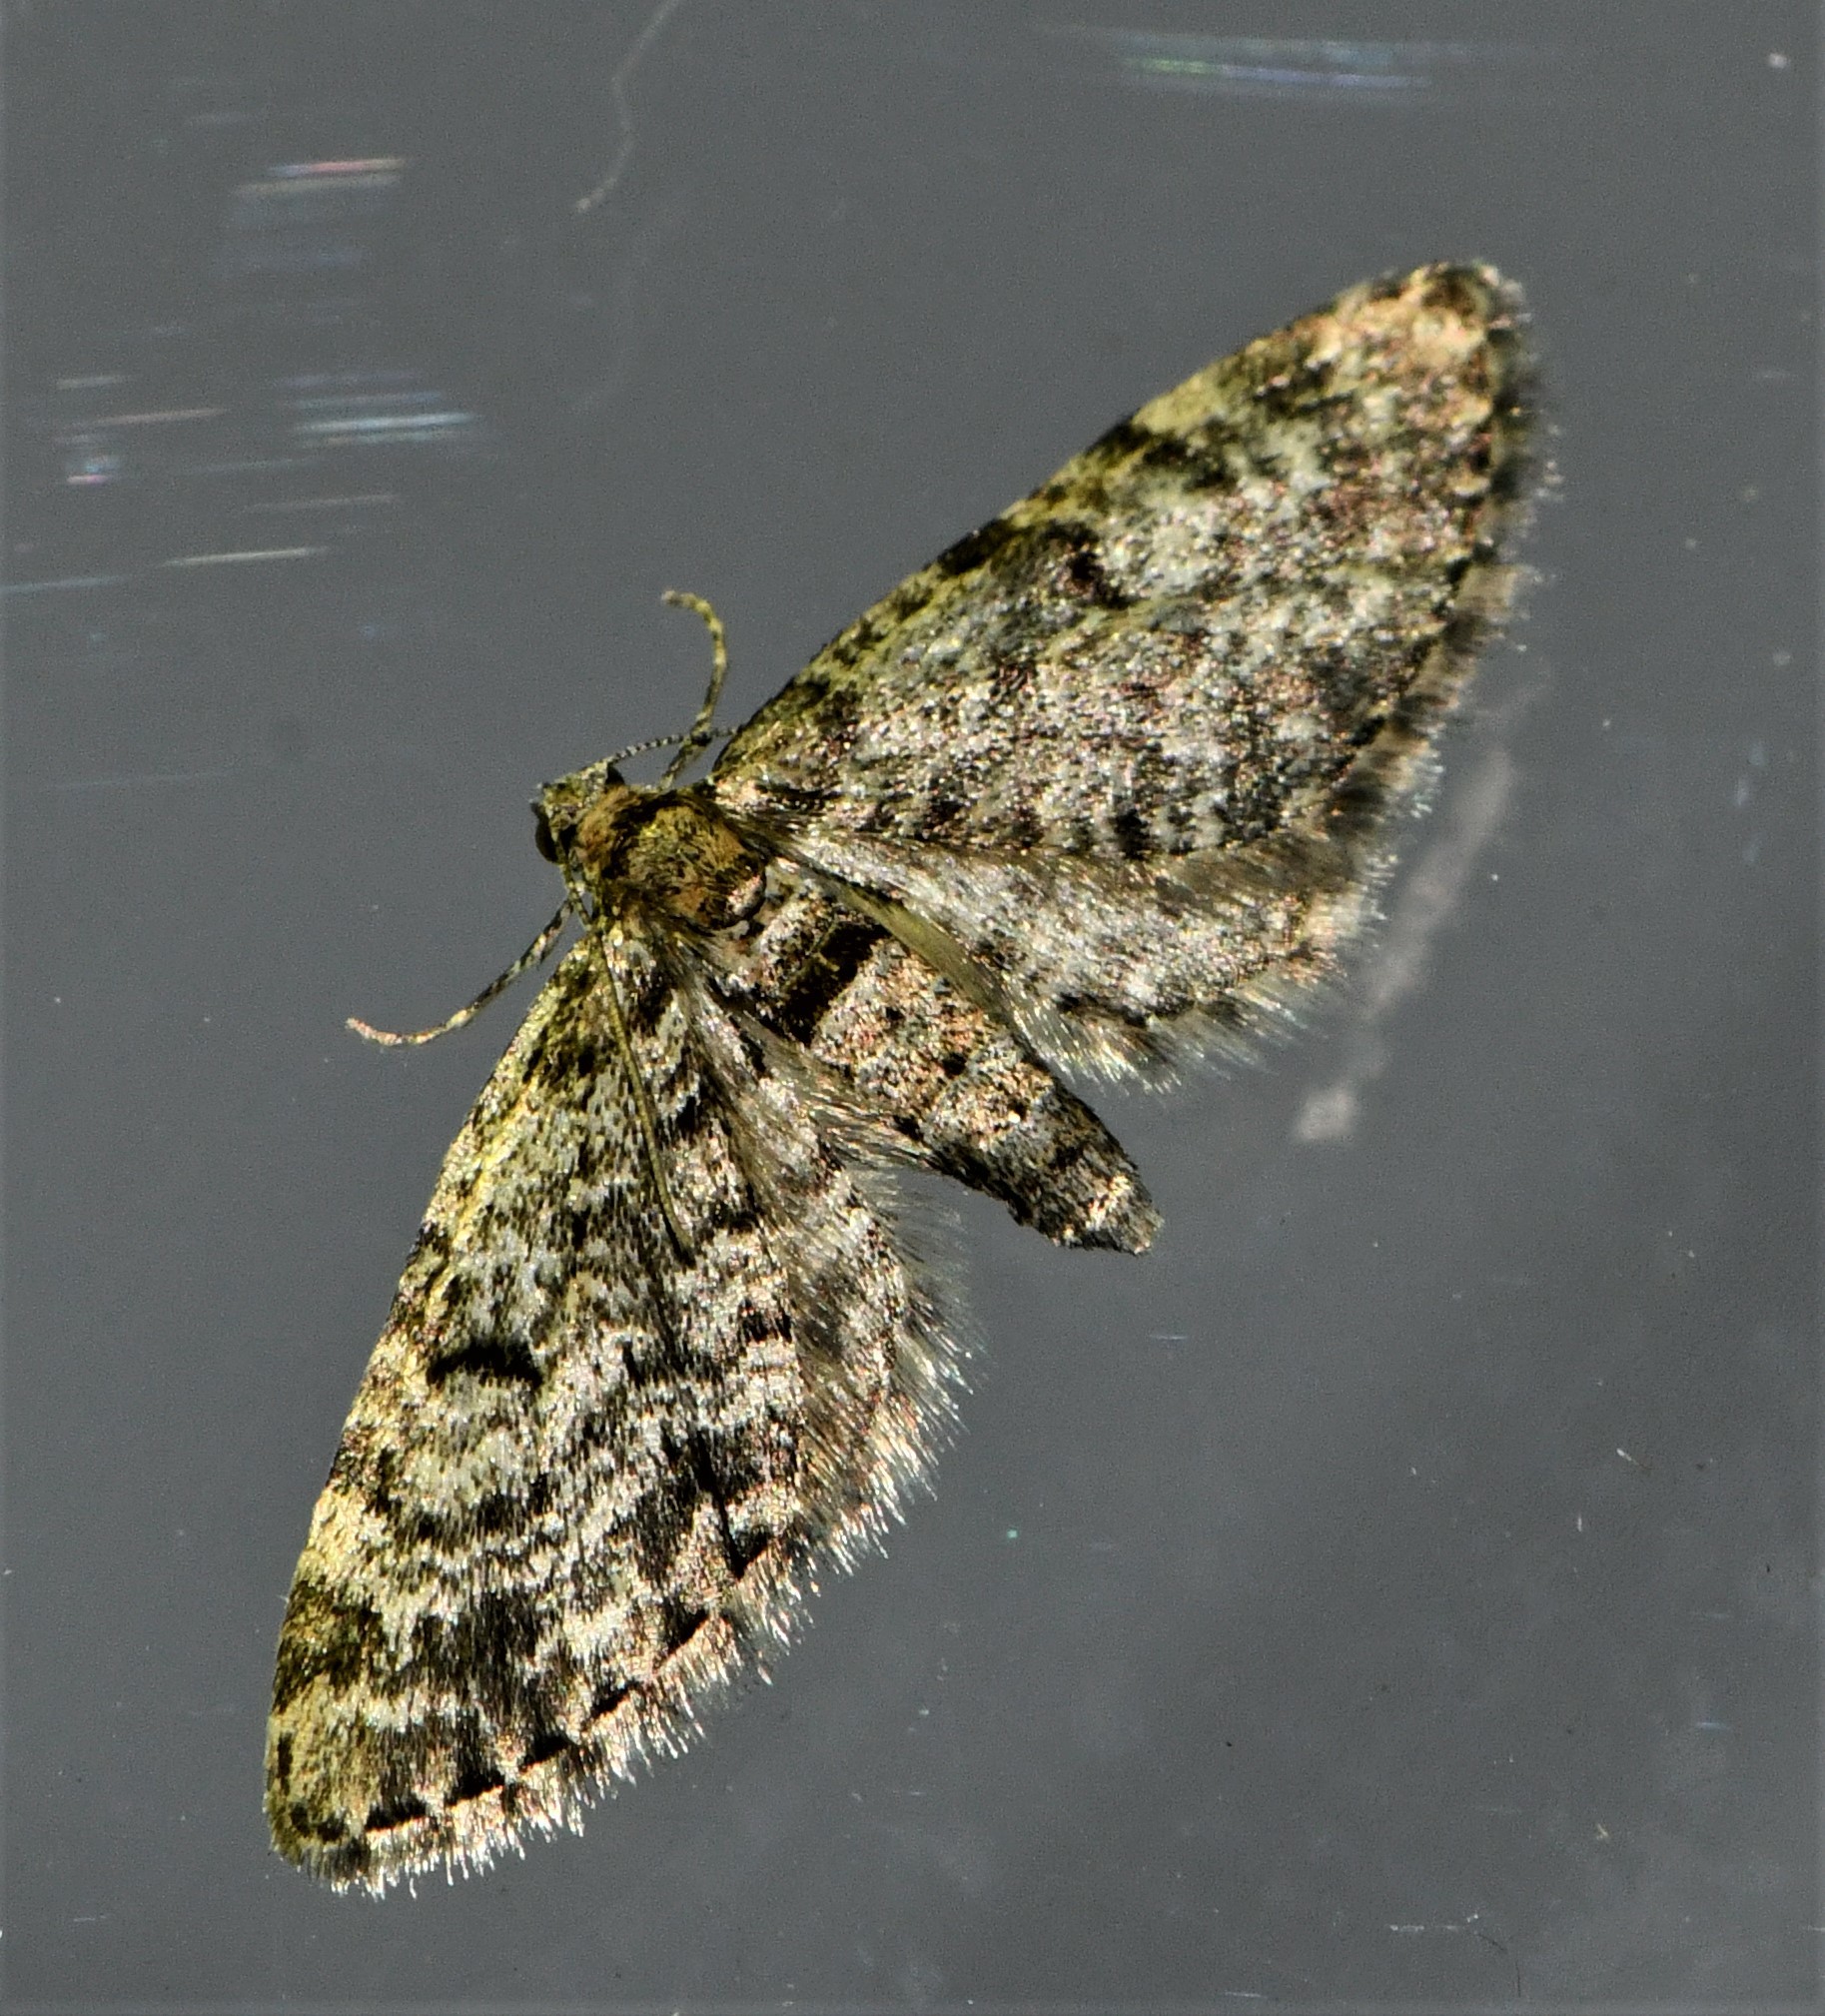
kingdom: Animalia
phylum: Arthropoda
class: Insecta
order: Lepidoptera
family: Geometridae
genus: Eupithecia
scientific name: Eupithecia tantillaria
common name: Dwarf pug
